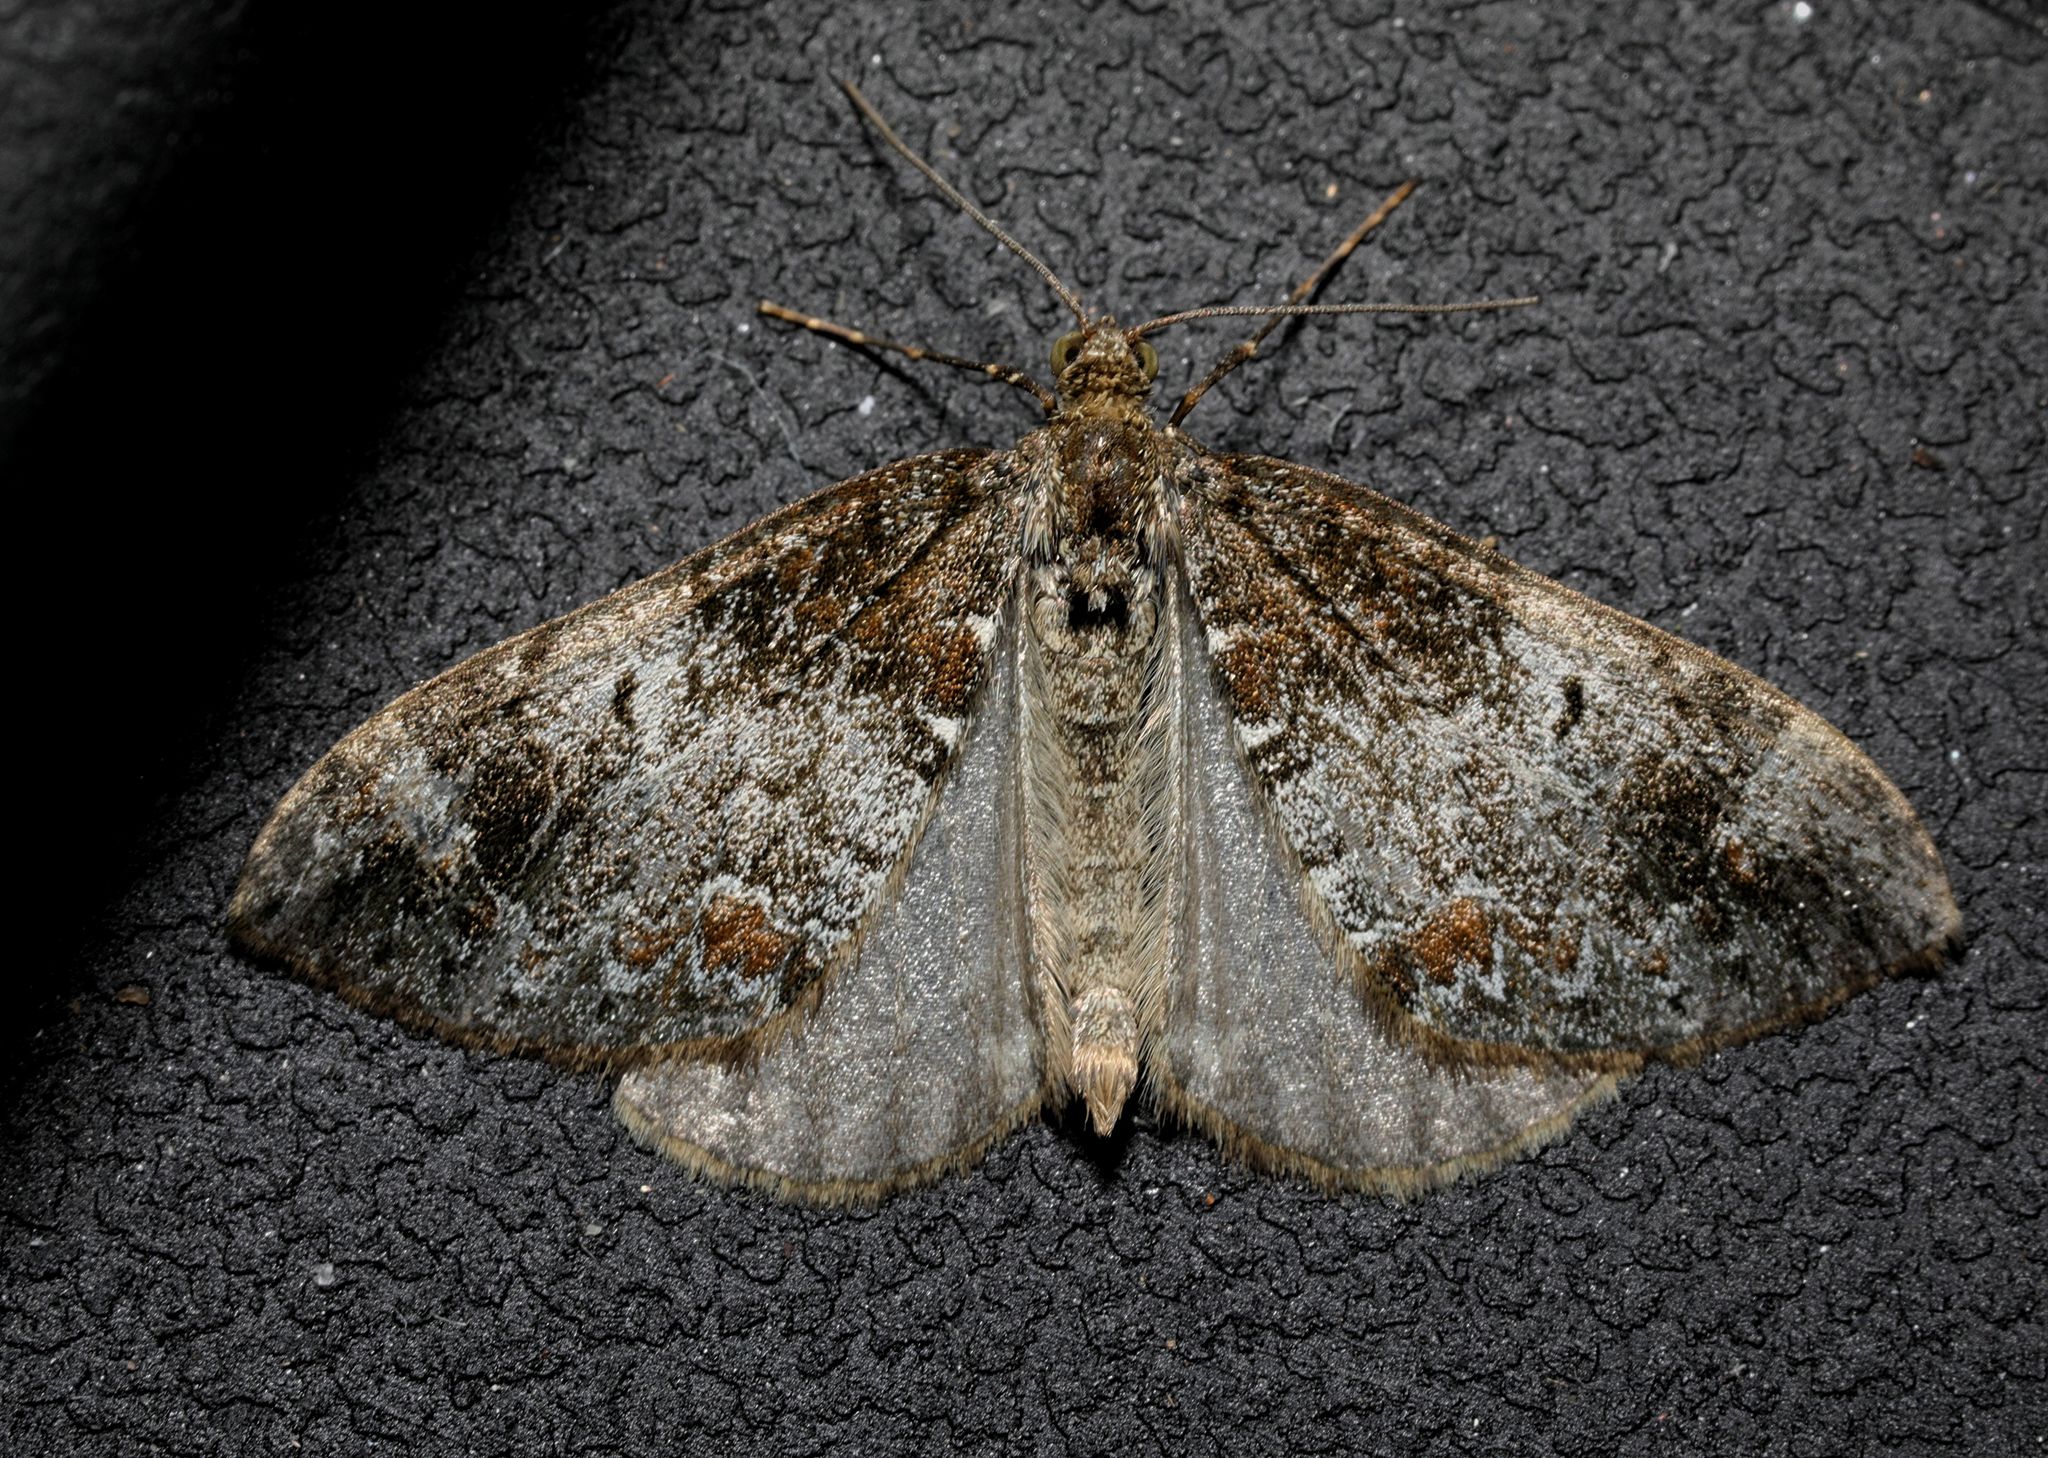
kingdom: Animalia
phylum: Arthropoda
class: Insecta
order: Lepidoptera
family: Geometridae
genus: Dysstroma
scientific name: Dysstroma truncata
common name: Common marbled carpet
